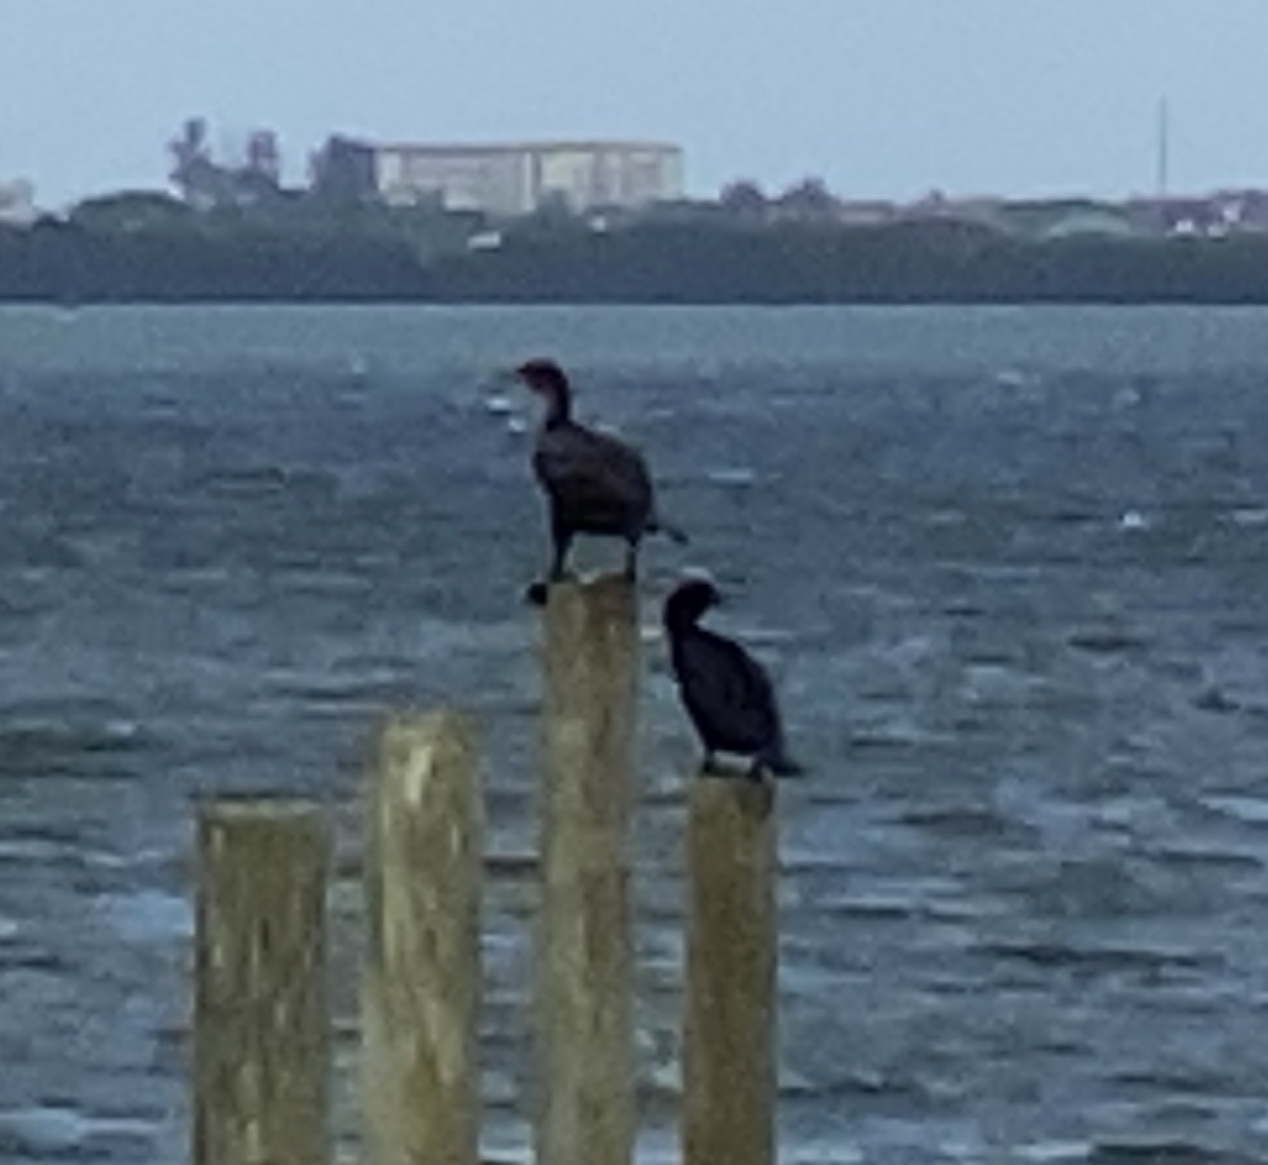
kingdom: Animalia
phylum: Chordata
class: Aves
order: Suliformes
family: Phalacrocoracidae
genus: Phalacrocorax
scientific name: Phalacrocorax auritus
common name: Double-crested cormorant
